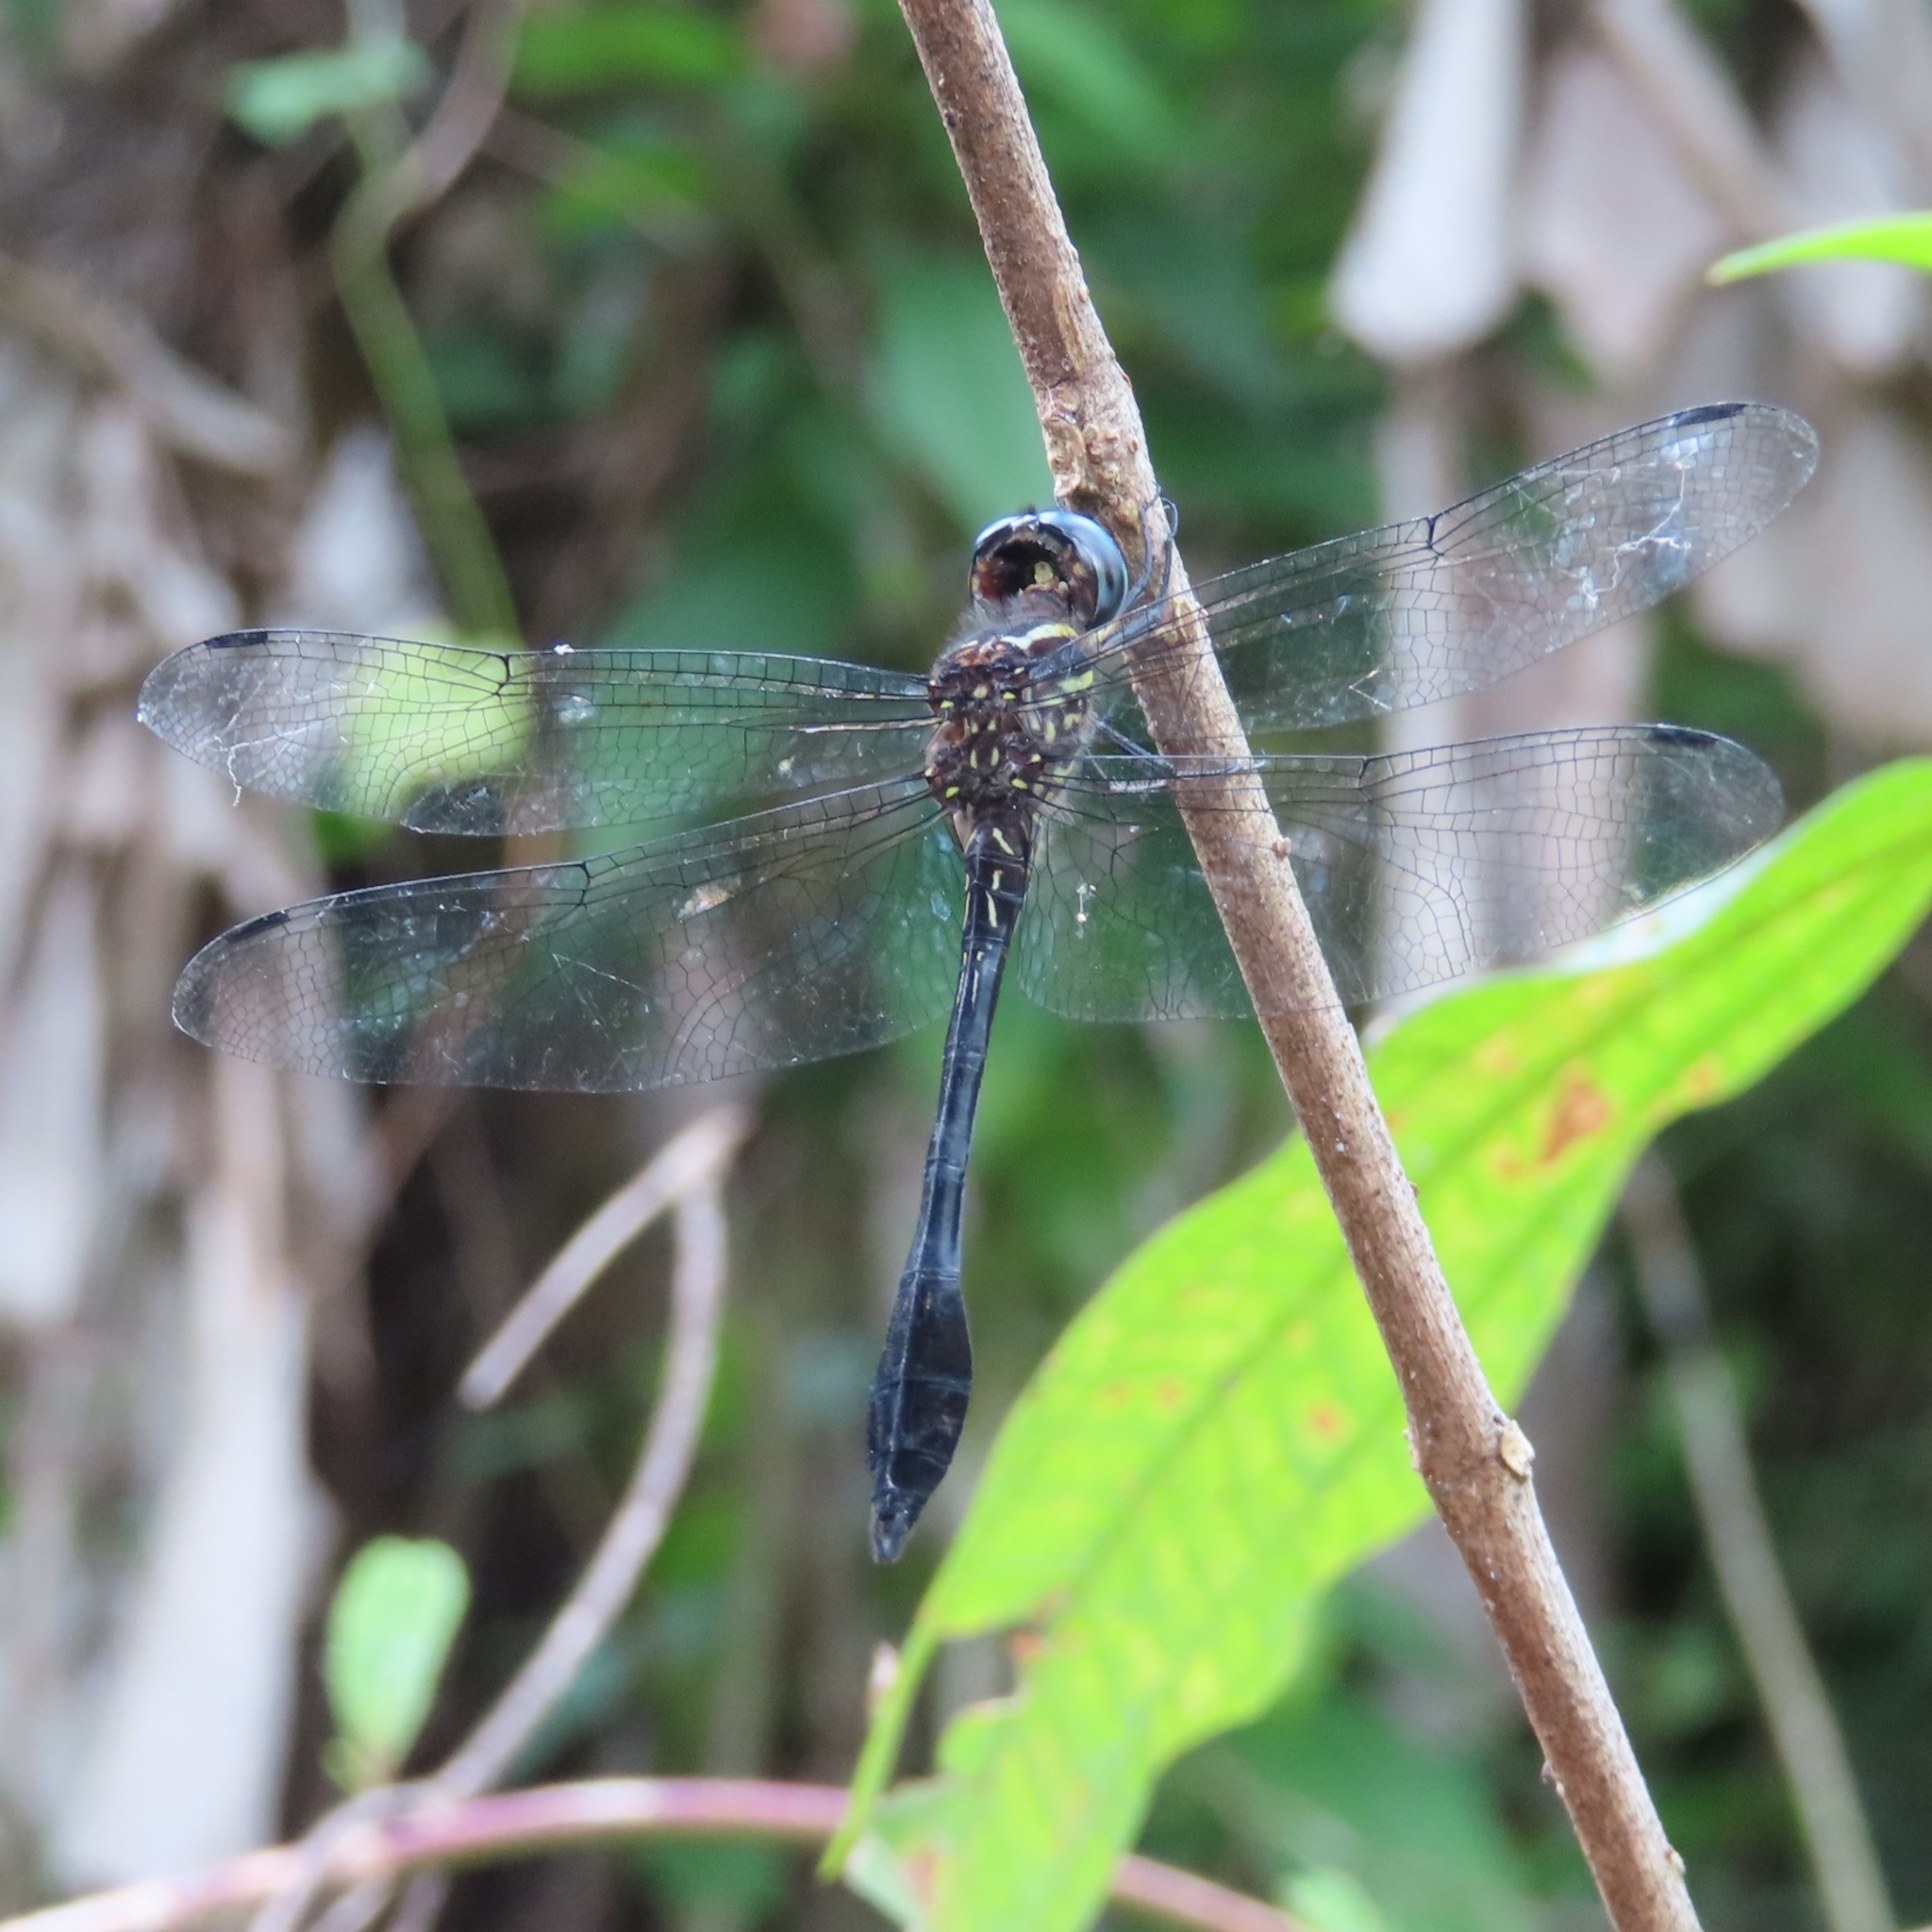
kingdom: Animalia
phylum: Arthropoda
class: Insecta
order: Odonata
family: Libellulidae
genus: Scapanea
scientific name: Scapanea frontalis
